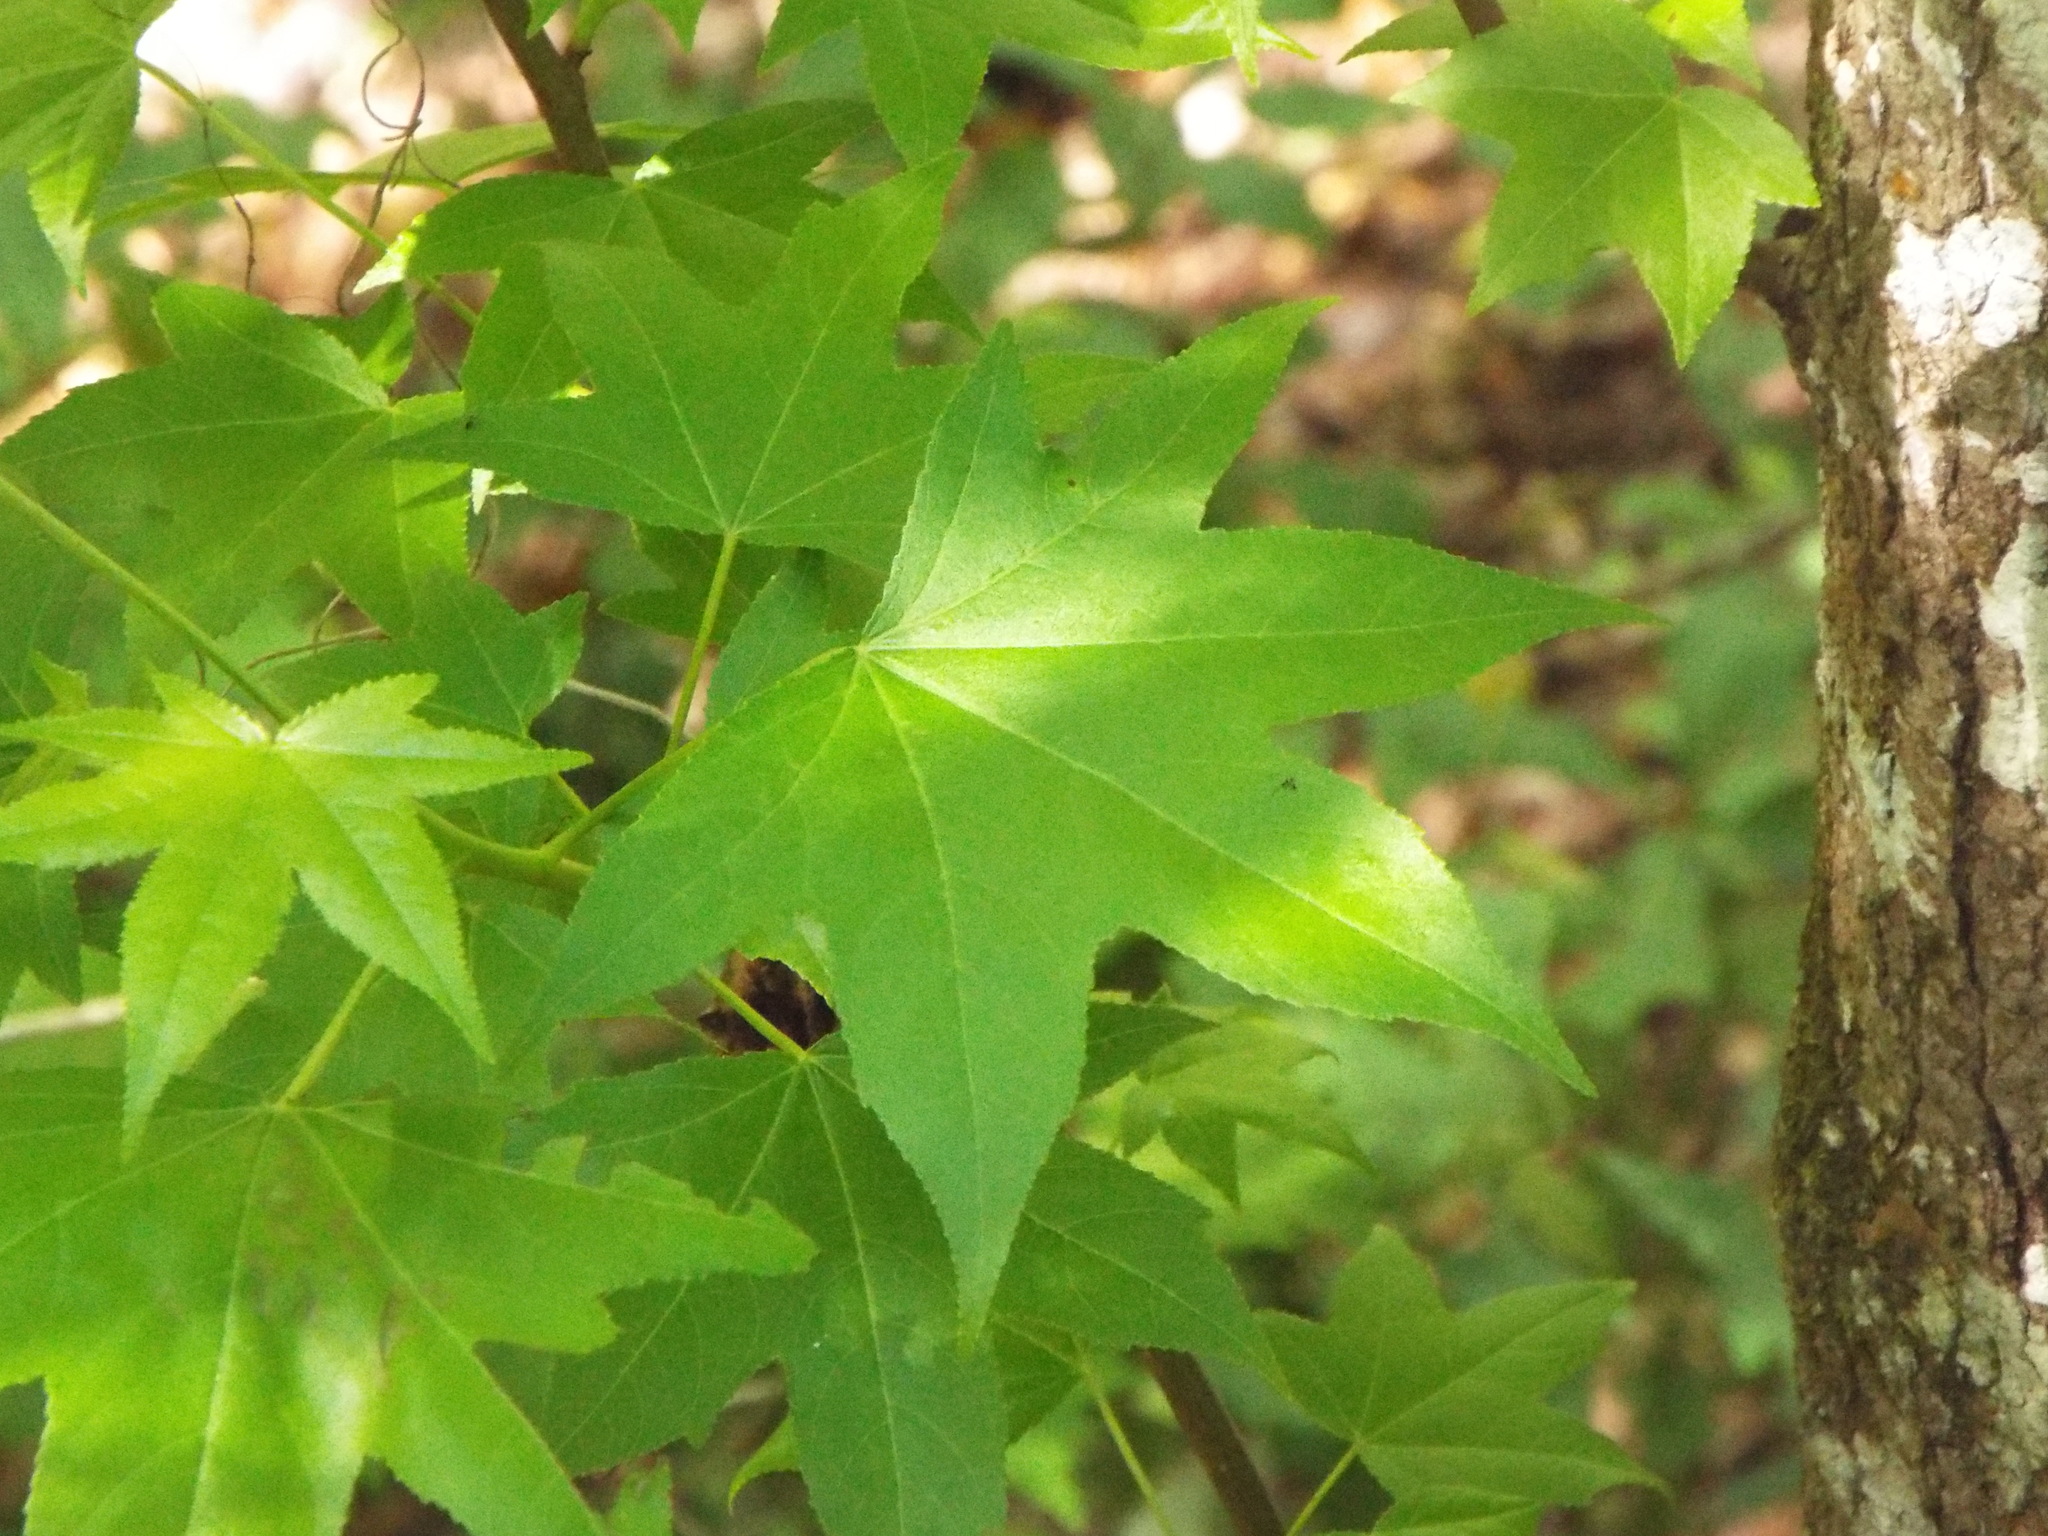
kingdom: Plantae
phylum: Tracheophyta
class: Magnoliopsida
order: Saxifragales
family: Altingiaceae
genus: Liquidambar
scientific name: Liquidambar styraciflua
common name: Sweet gum
